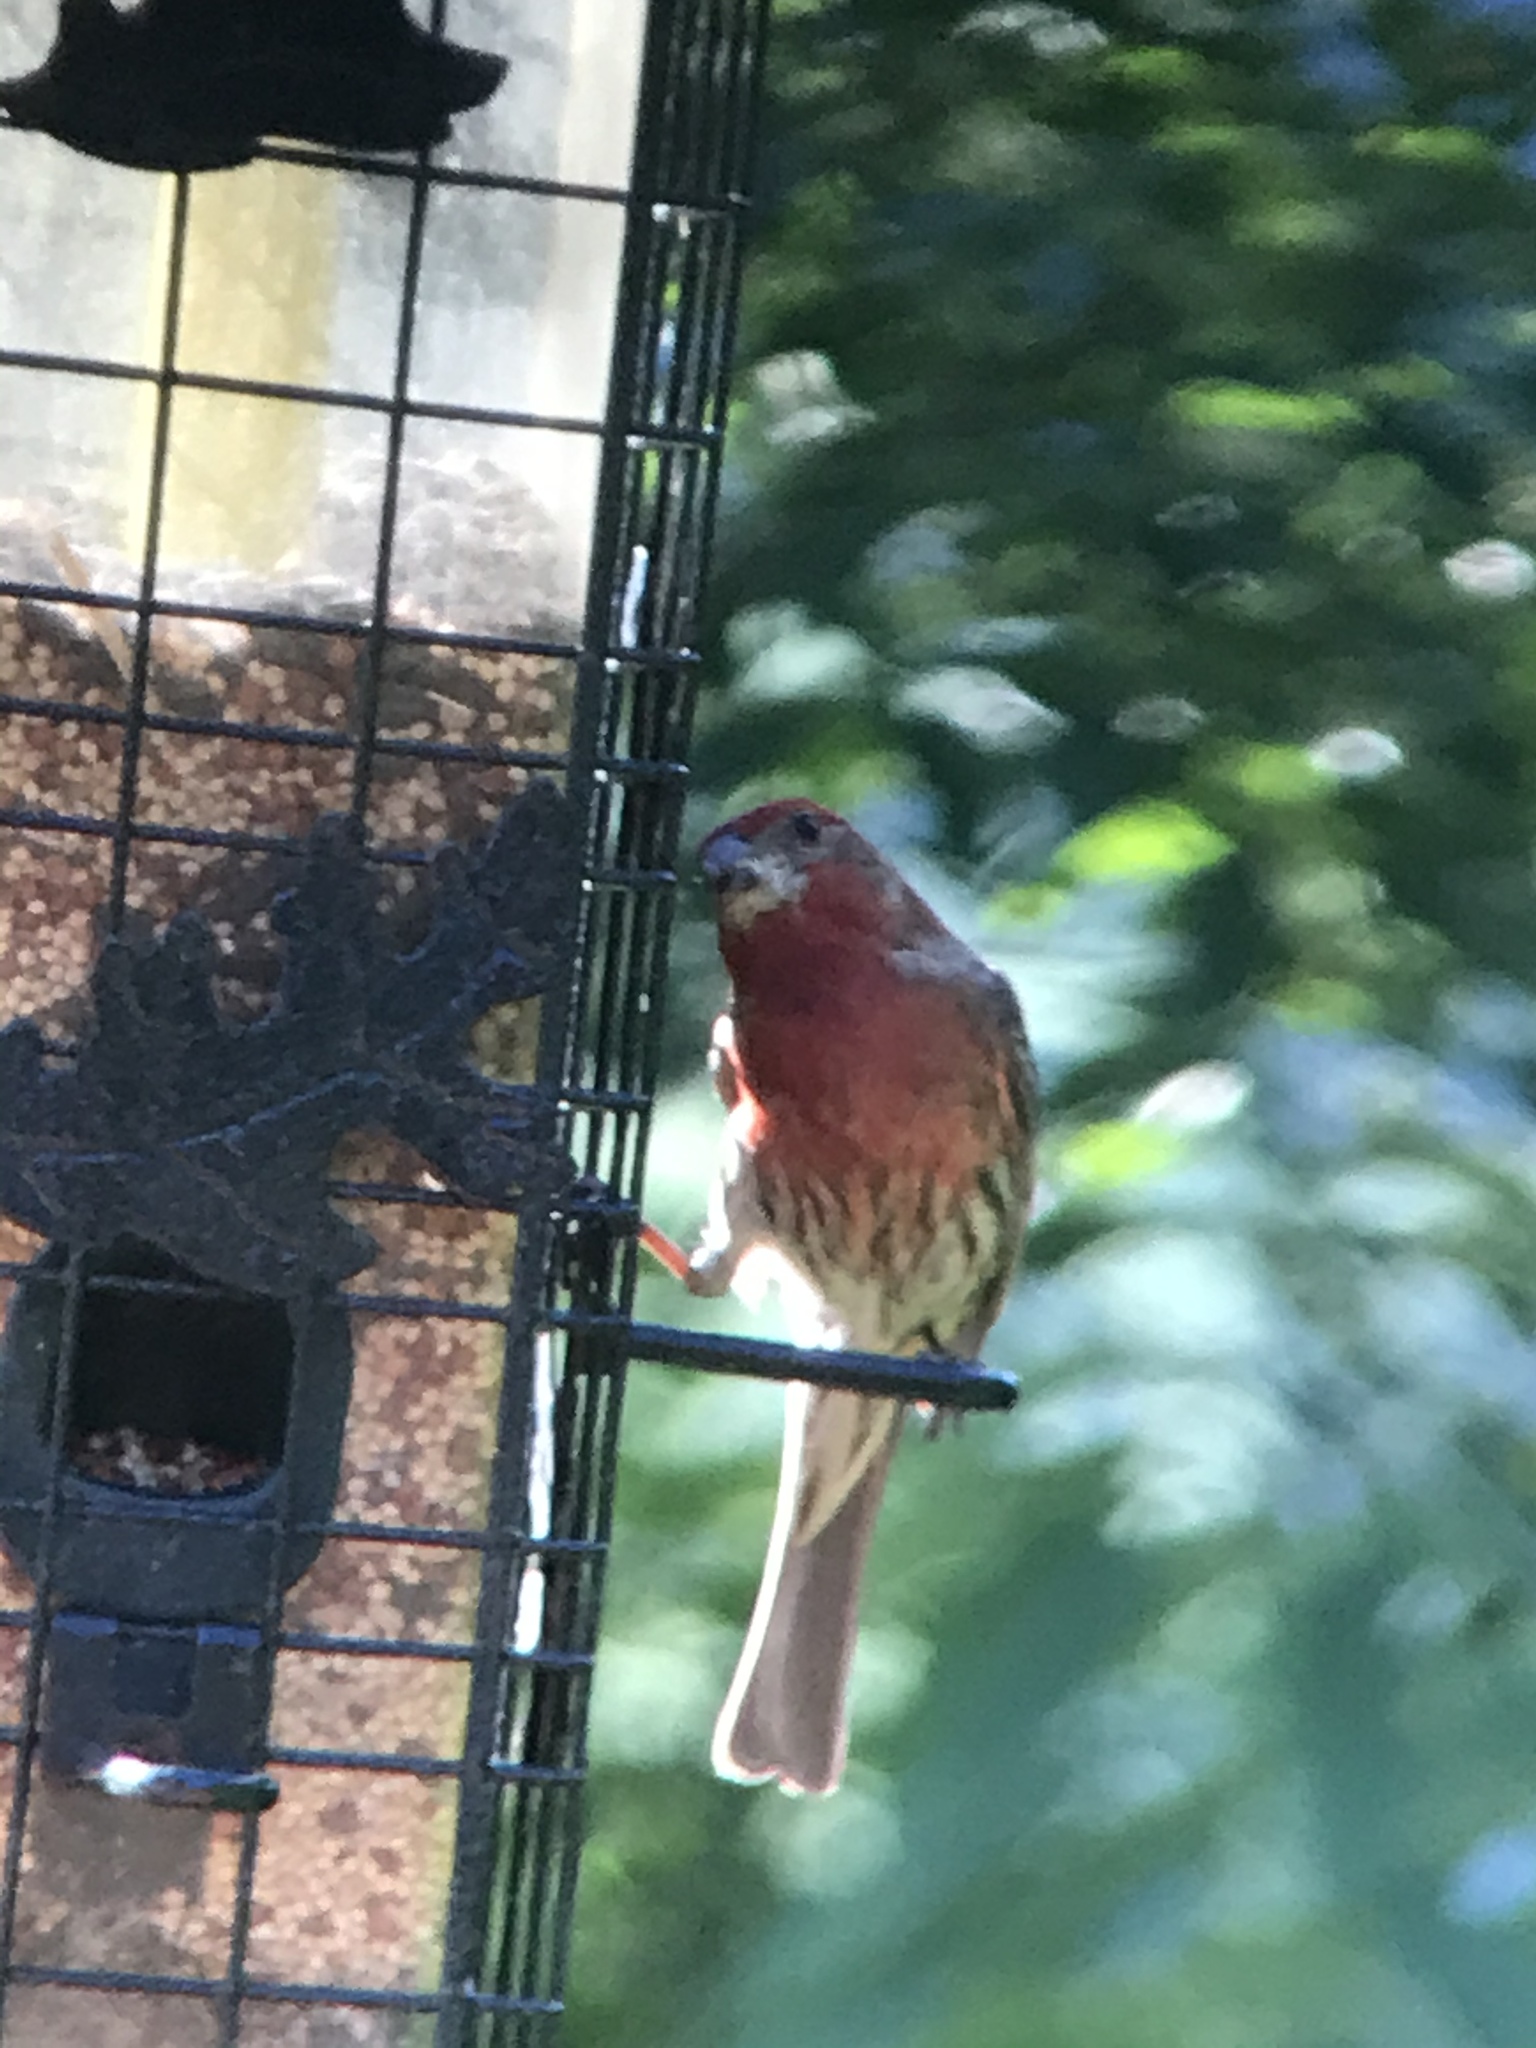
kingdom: Animalia
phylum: Chordata
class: Aves
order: Passeriformes
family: Fringillidae
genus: Haemorhous
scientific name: Haemorhous mexicanus
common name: House finch
